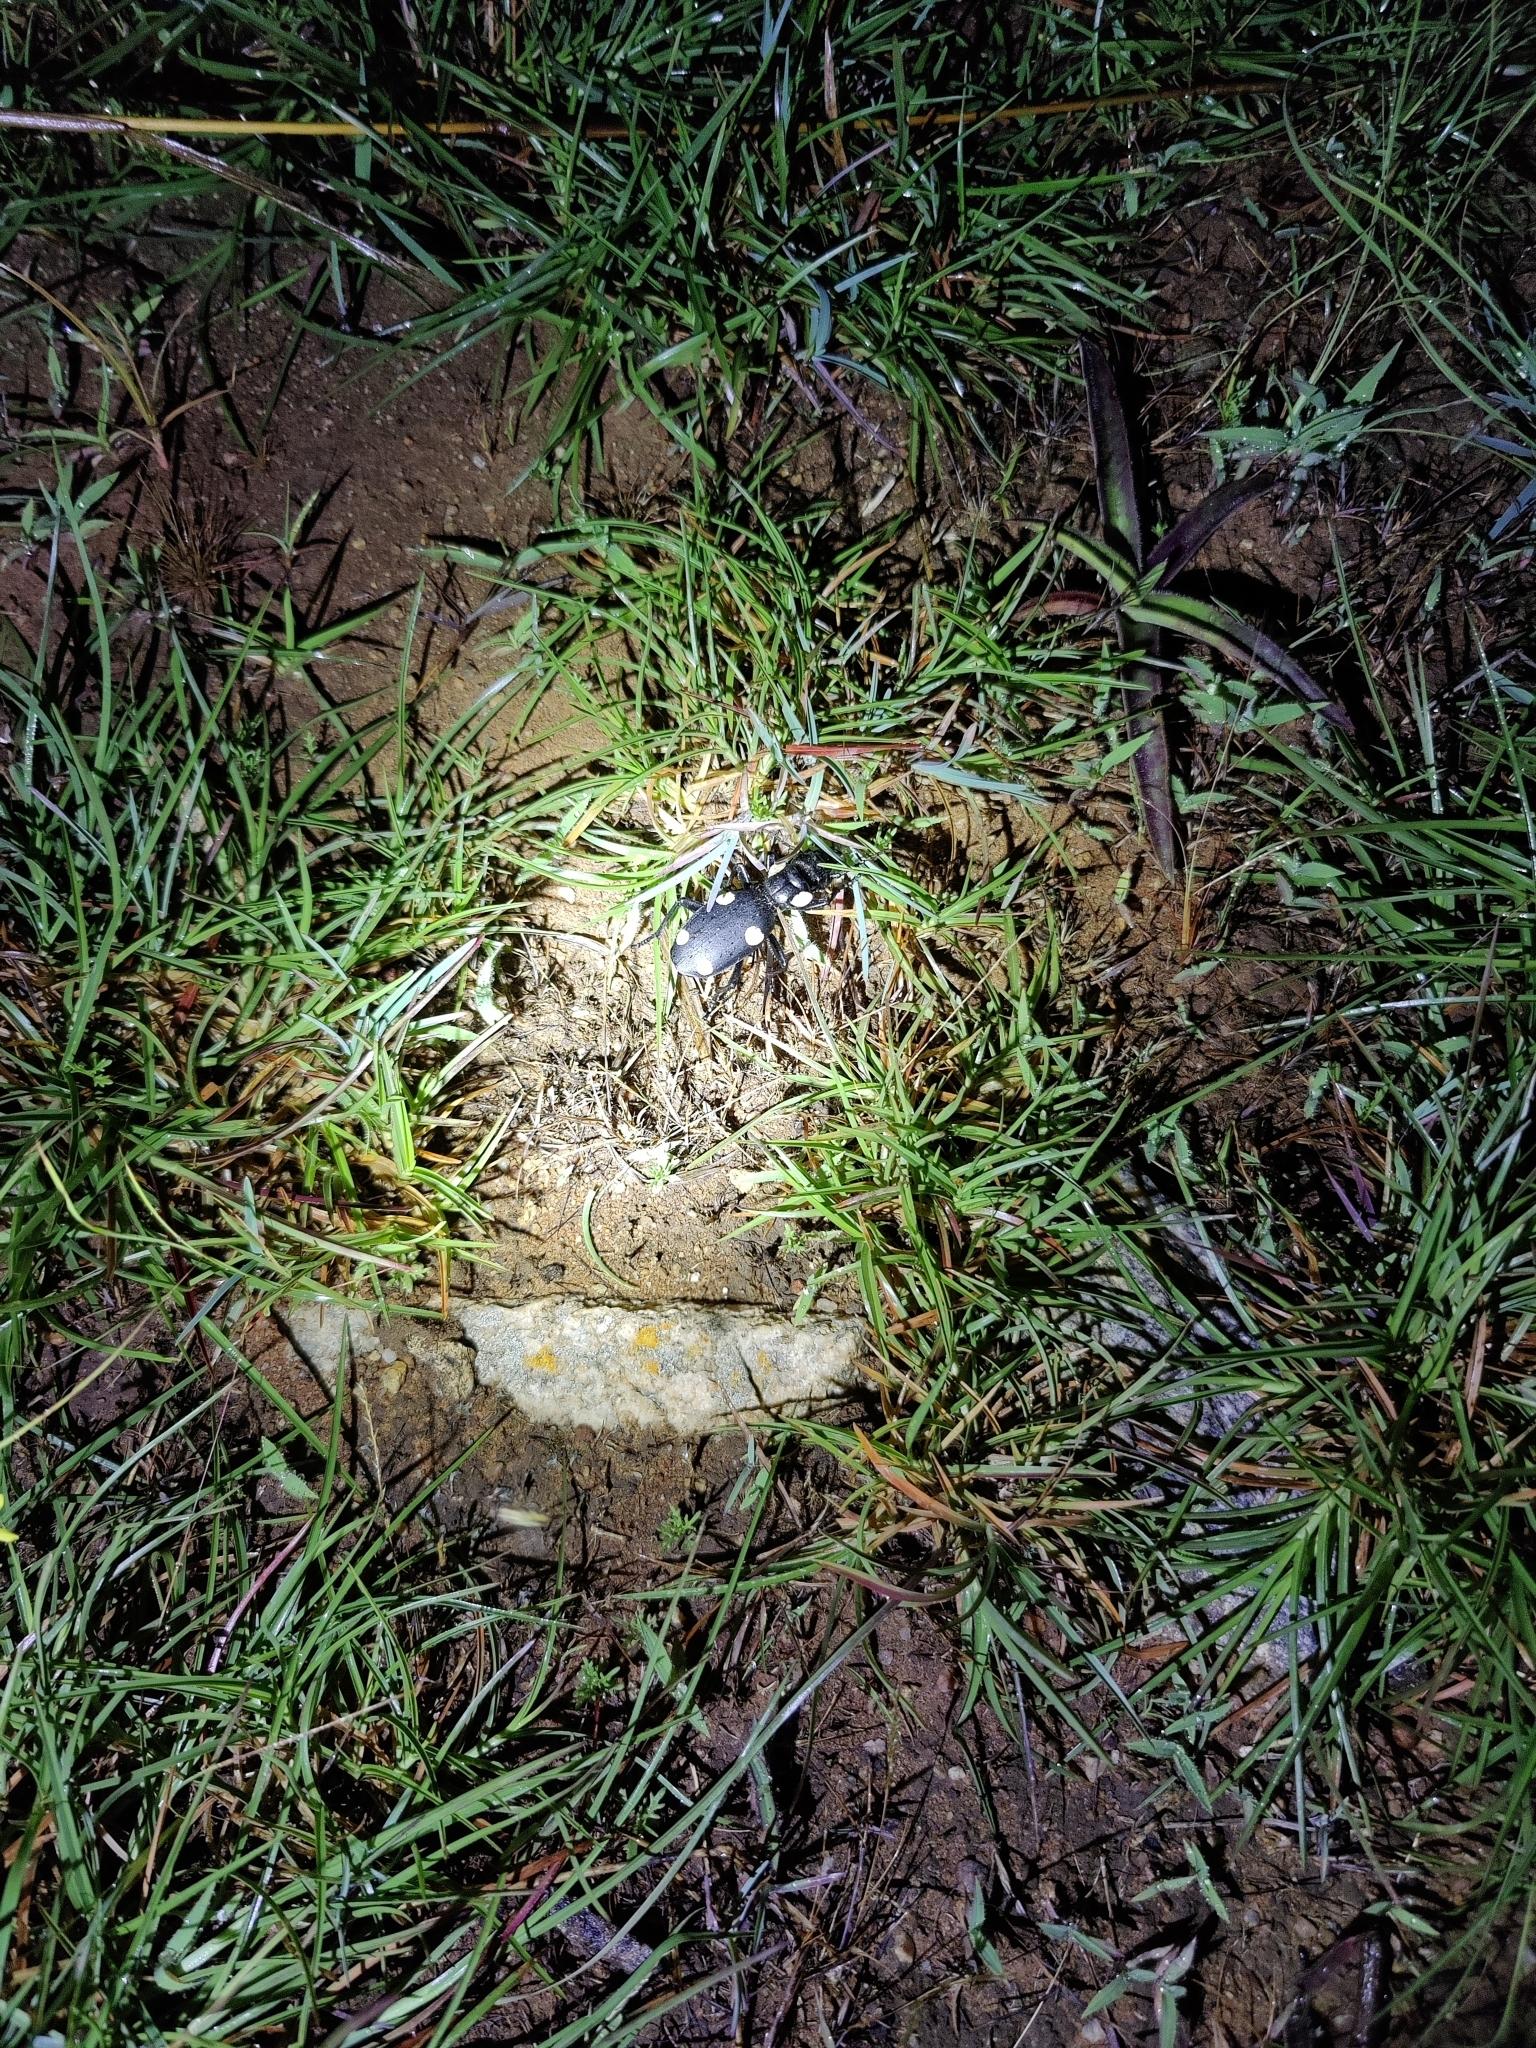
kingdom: Animalia
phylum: Arthropoda
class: Insecta
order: Coleoptera
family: Carabidae
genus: Anthia
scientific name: Anthia sexguttata
